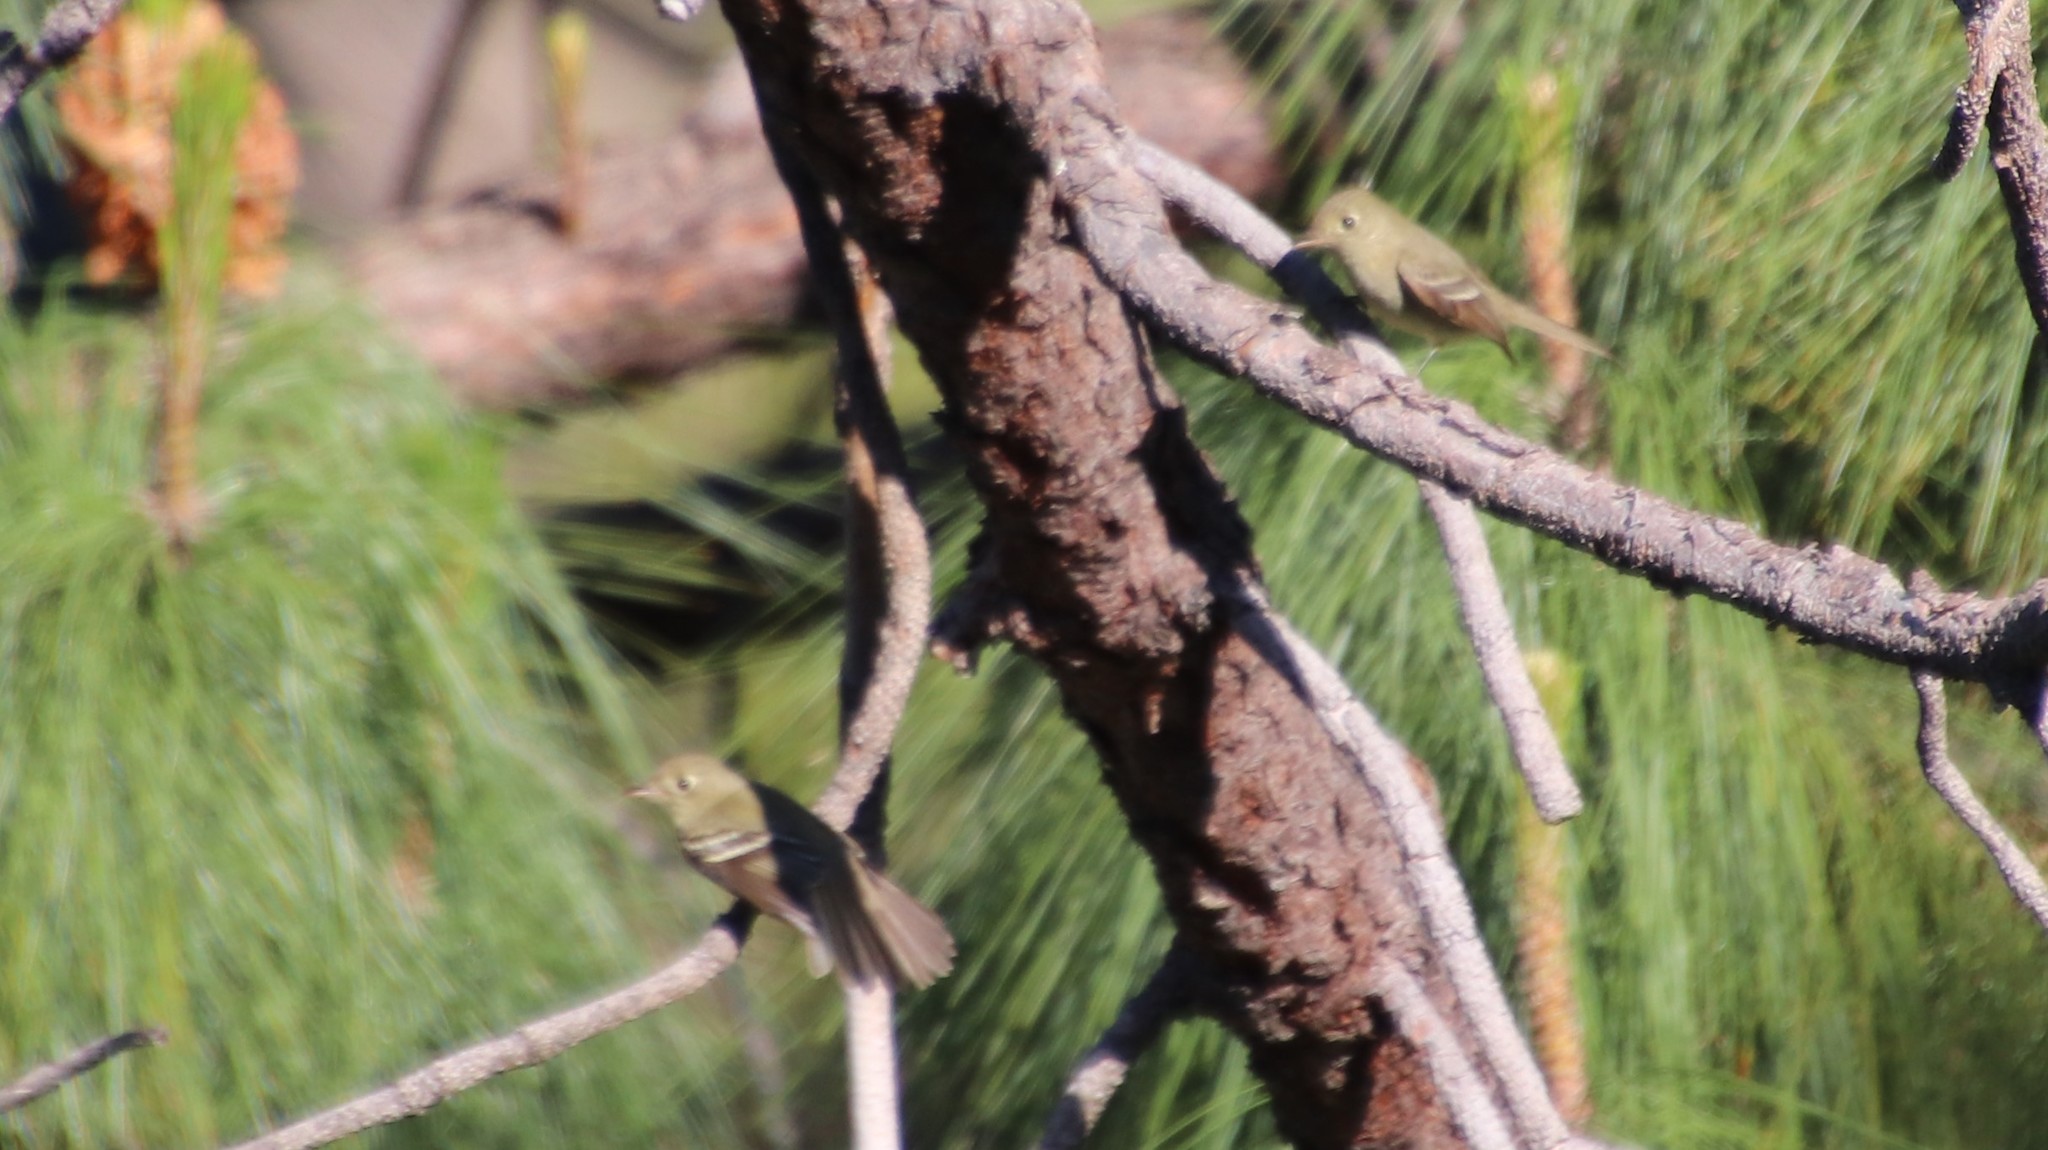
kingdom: Animalia
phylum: Chordata
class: Aves
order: Passeriformes
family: Tyrannidae
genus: Empidonax
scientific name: Empidonax difficilis
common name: Pacific-slope flycatcher
